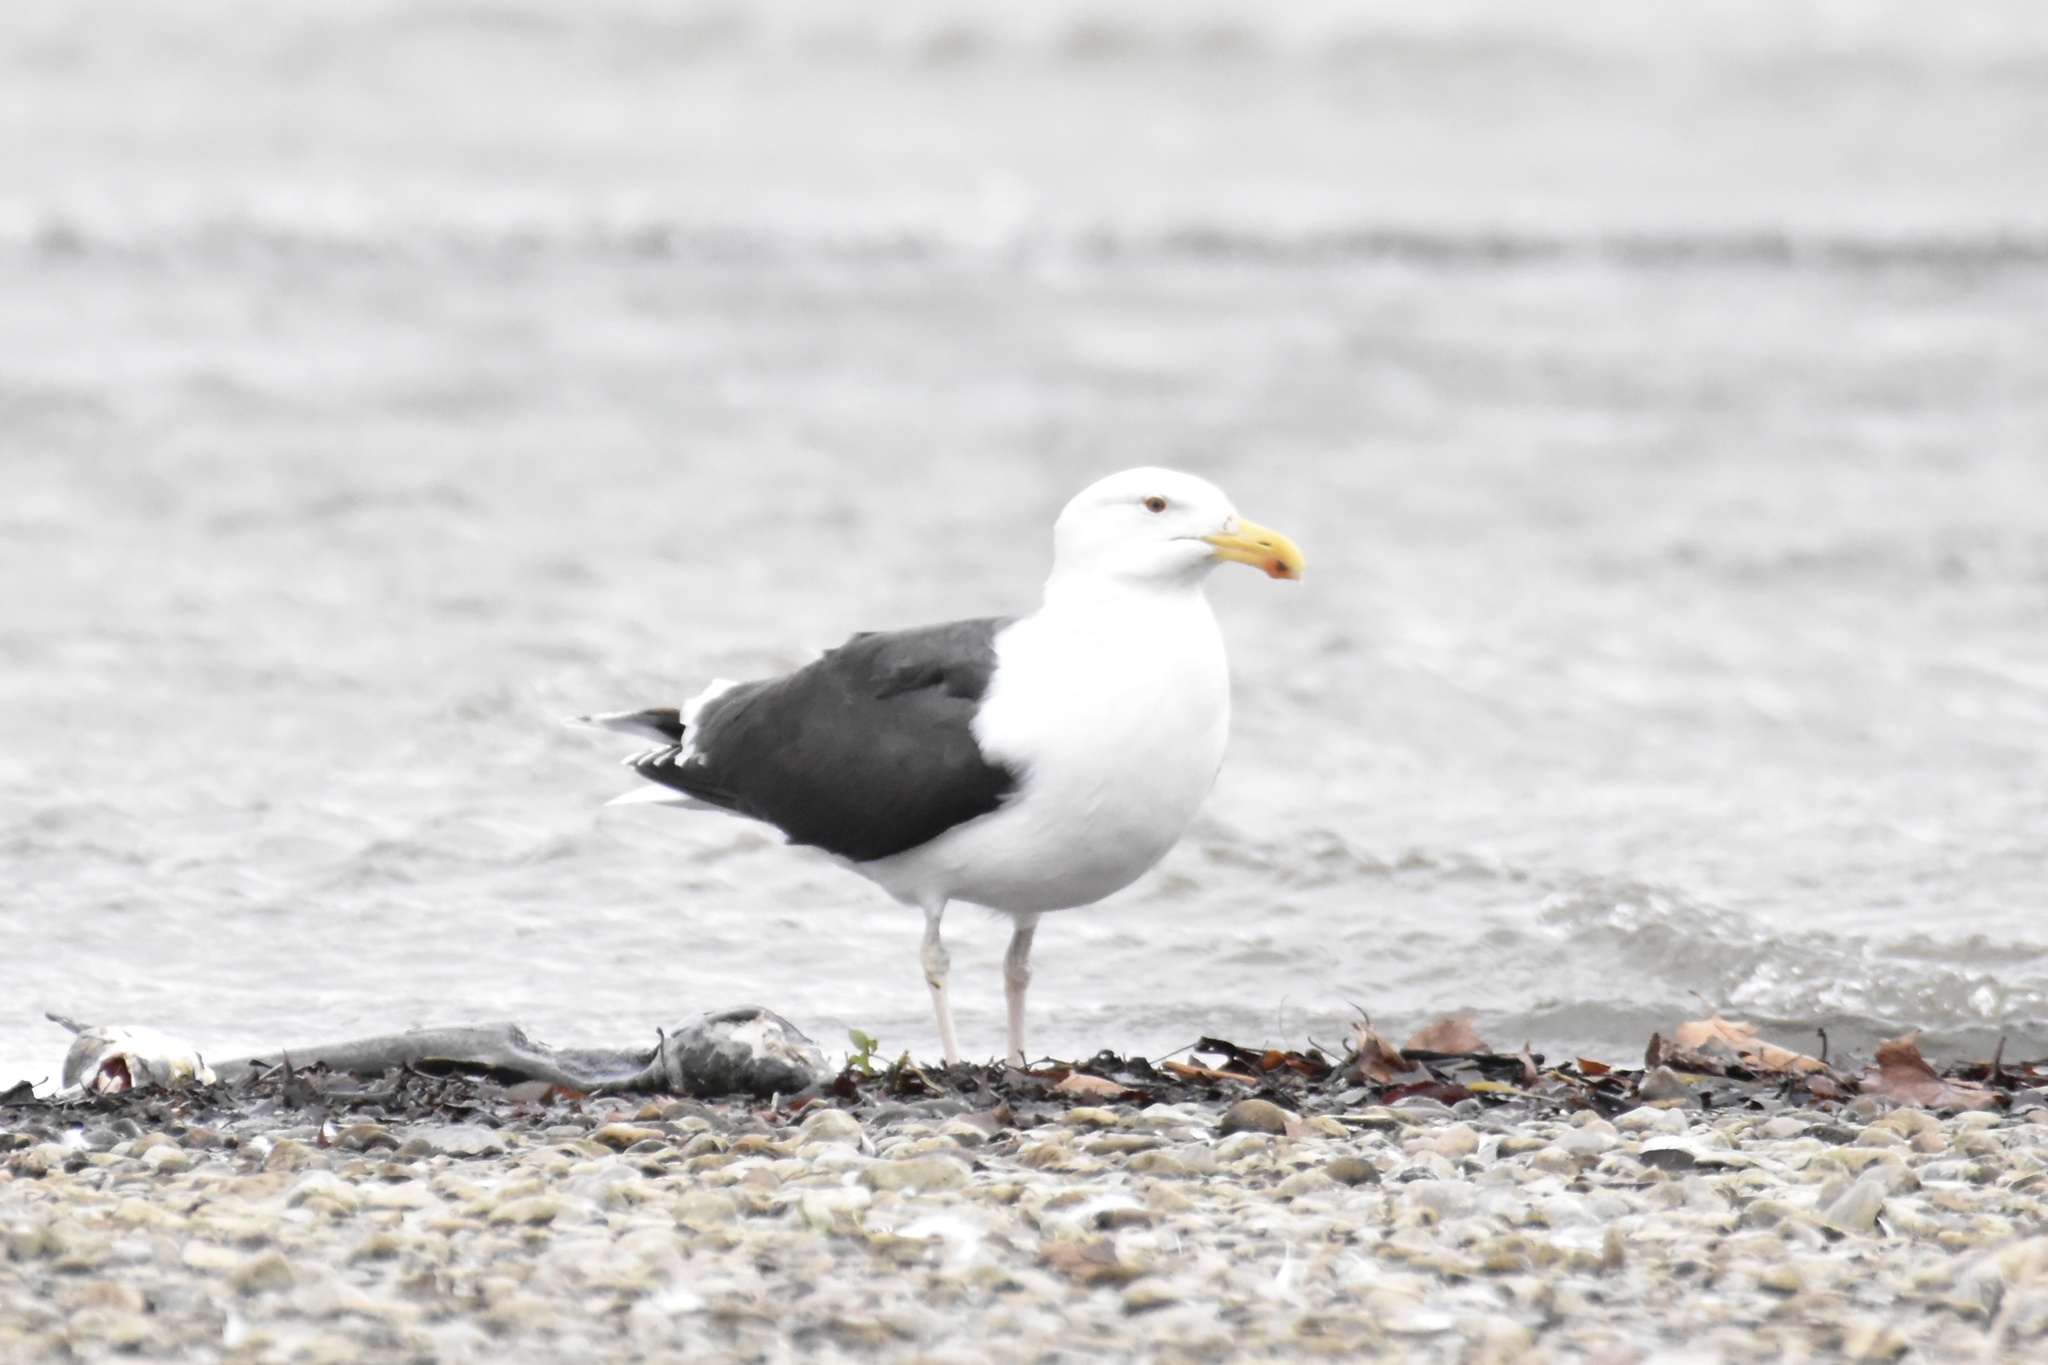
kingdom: Animalia
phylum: Chordata
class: Aves
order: Charadriiformes
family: Laridae
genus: Larus
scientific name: Larus marinus
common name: Great black-backed gull
